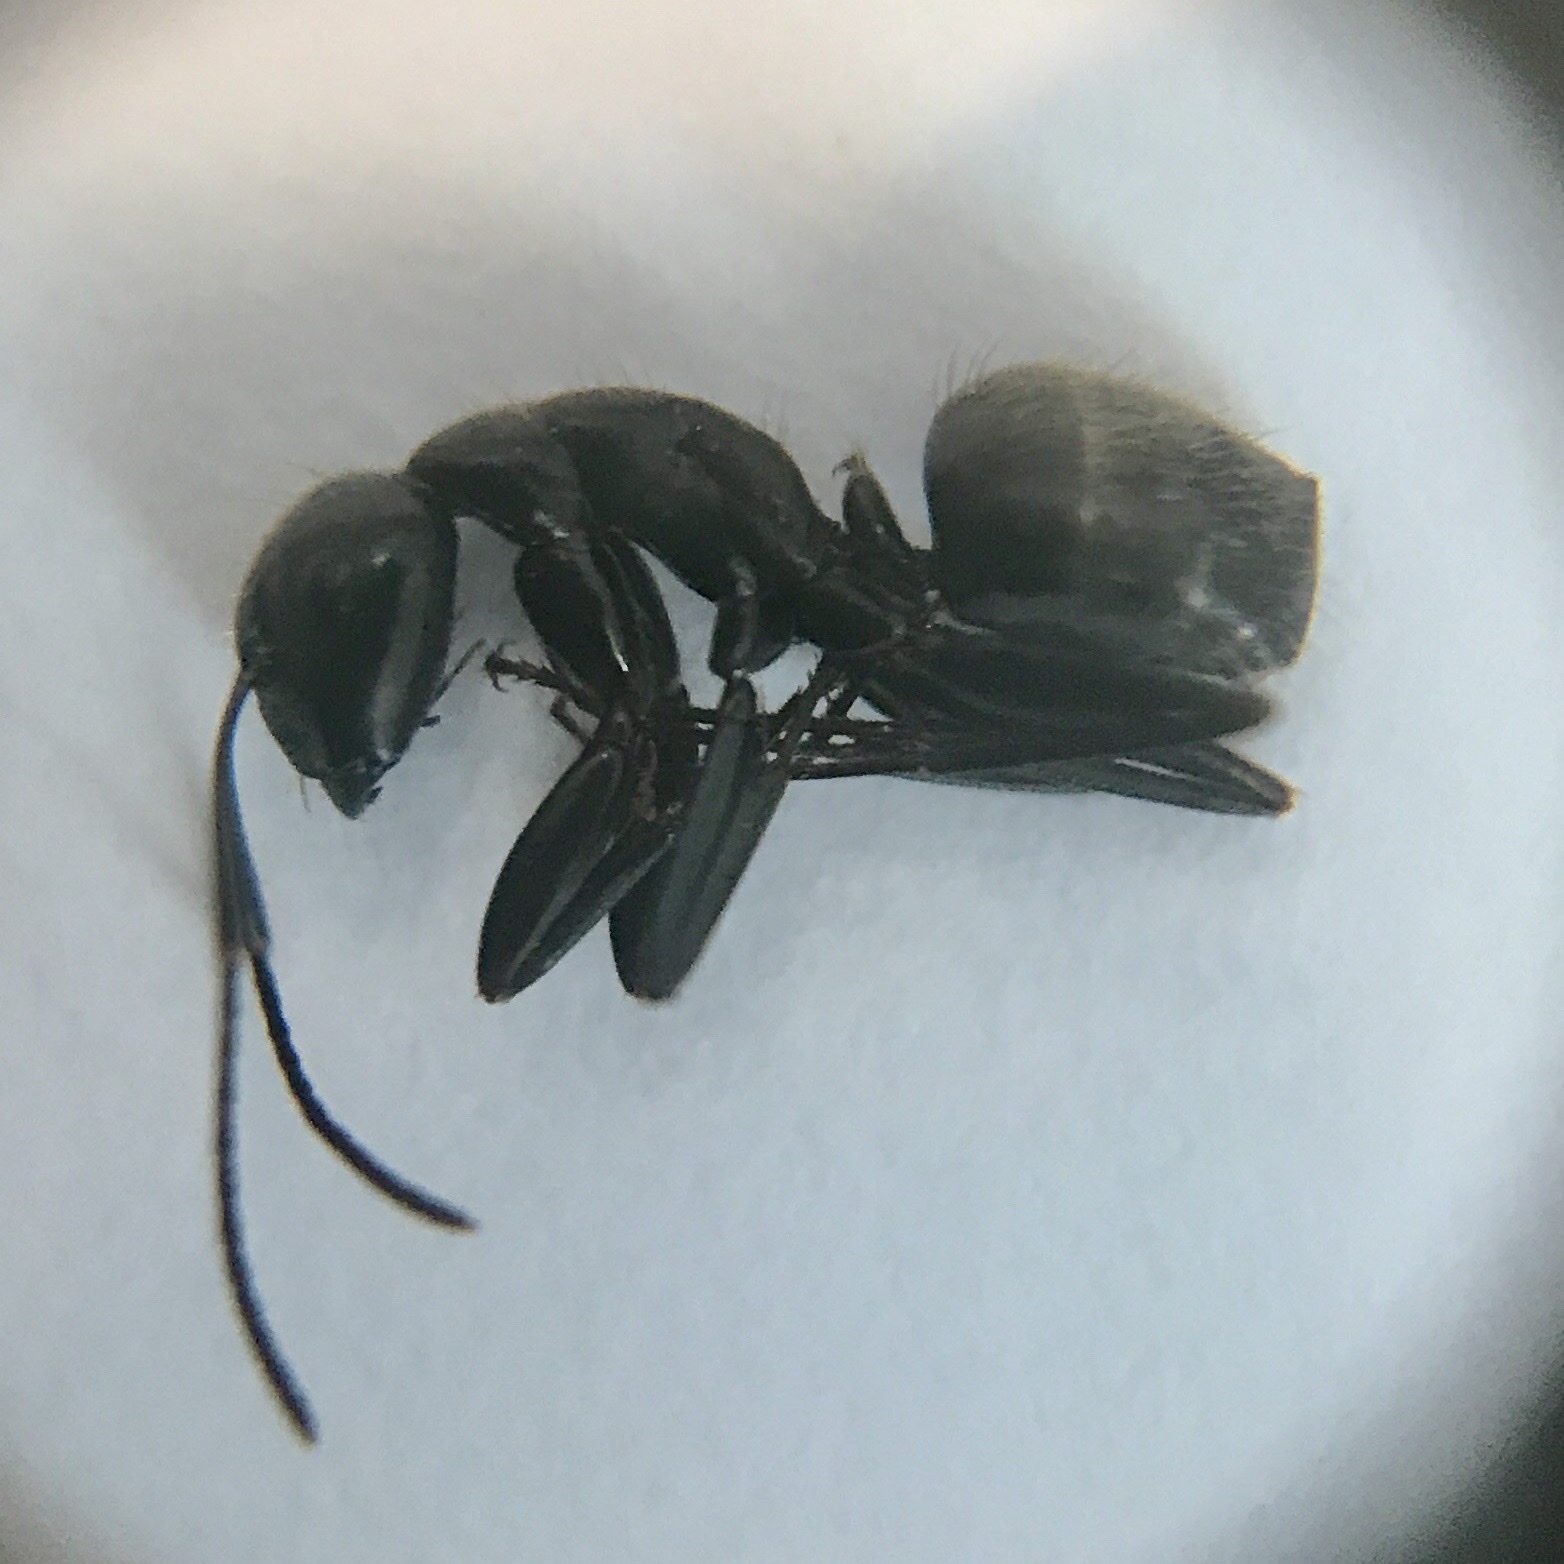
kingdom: Animalia
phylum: Arthropoda
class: Insecta
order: Hymenoptera
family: Formicidae
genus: Camponotus
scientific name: Camponotus pennsylvanicus
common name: Black carpenter ant
